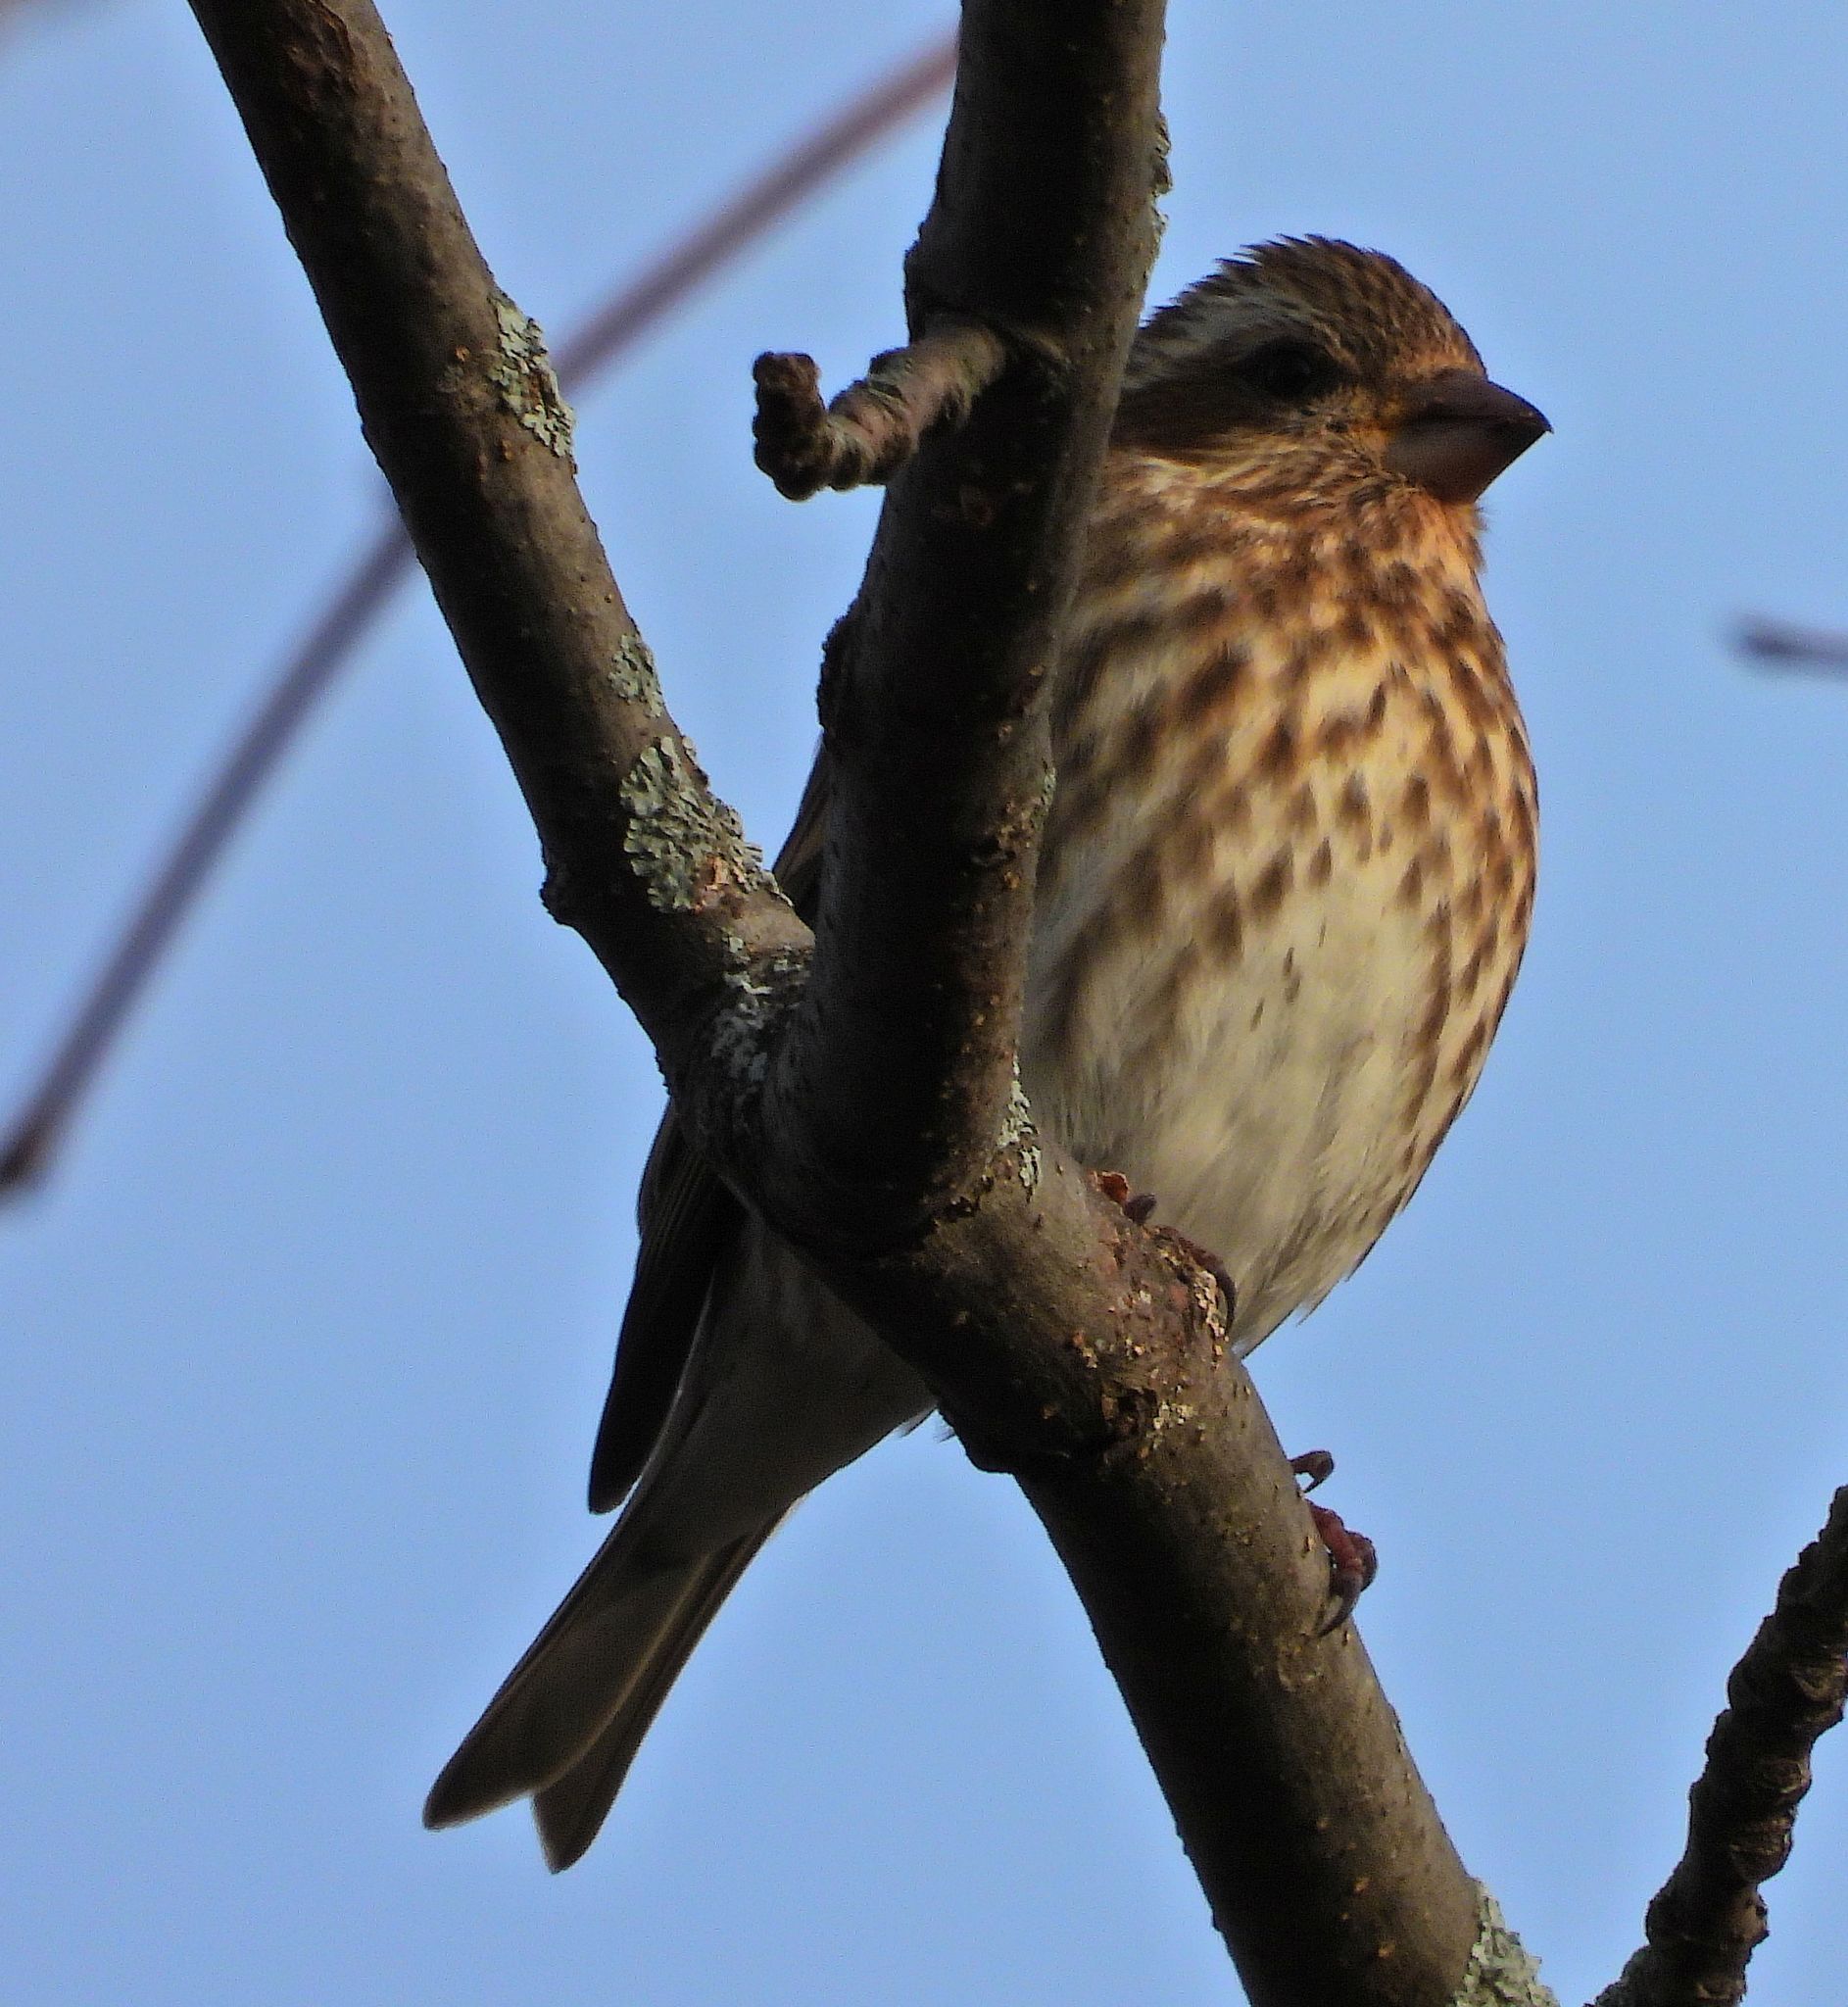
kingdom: Animalia
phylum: Chordata
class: Aves
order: Passeriformes
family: Fringillidae
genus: Haemorhous
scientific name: Haemorhous purpureus
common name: Purple finch
